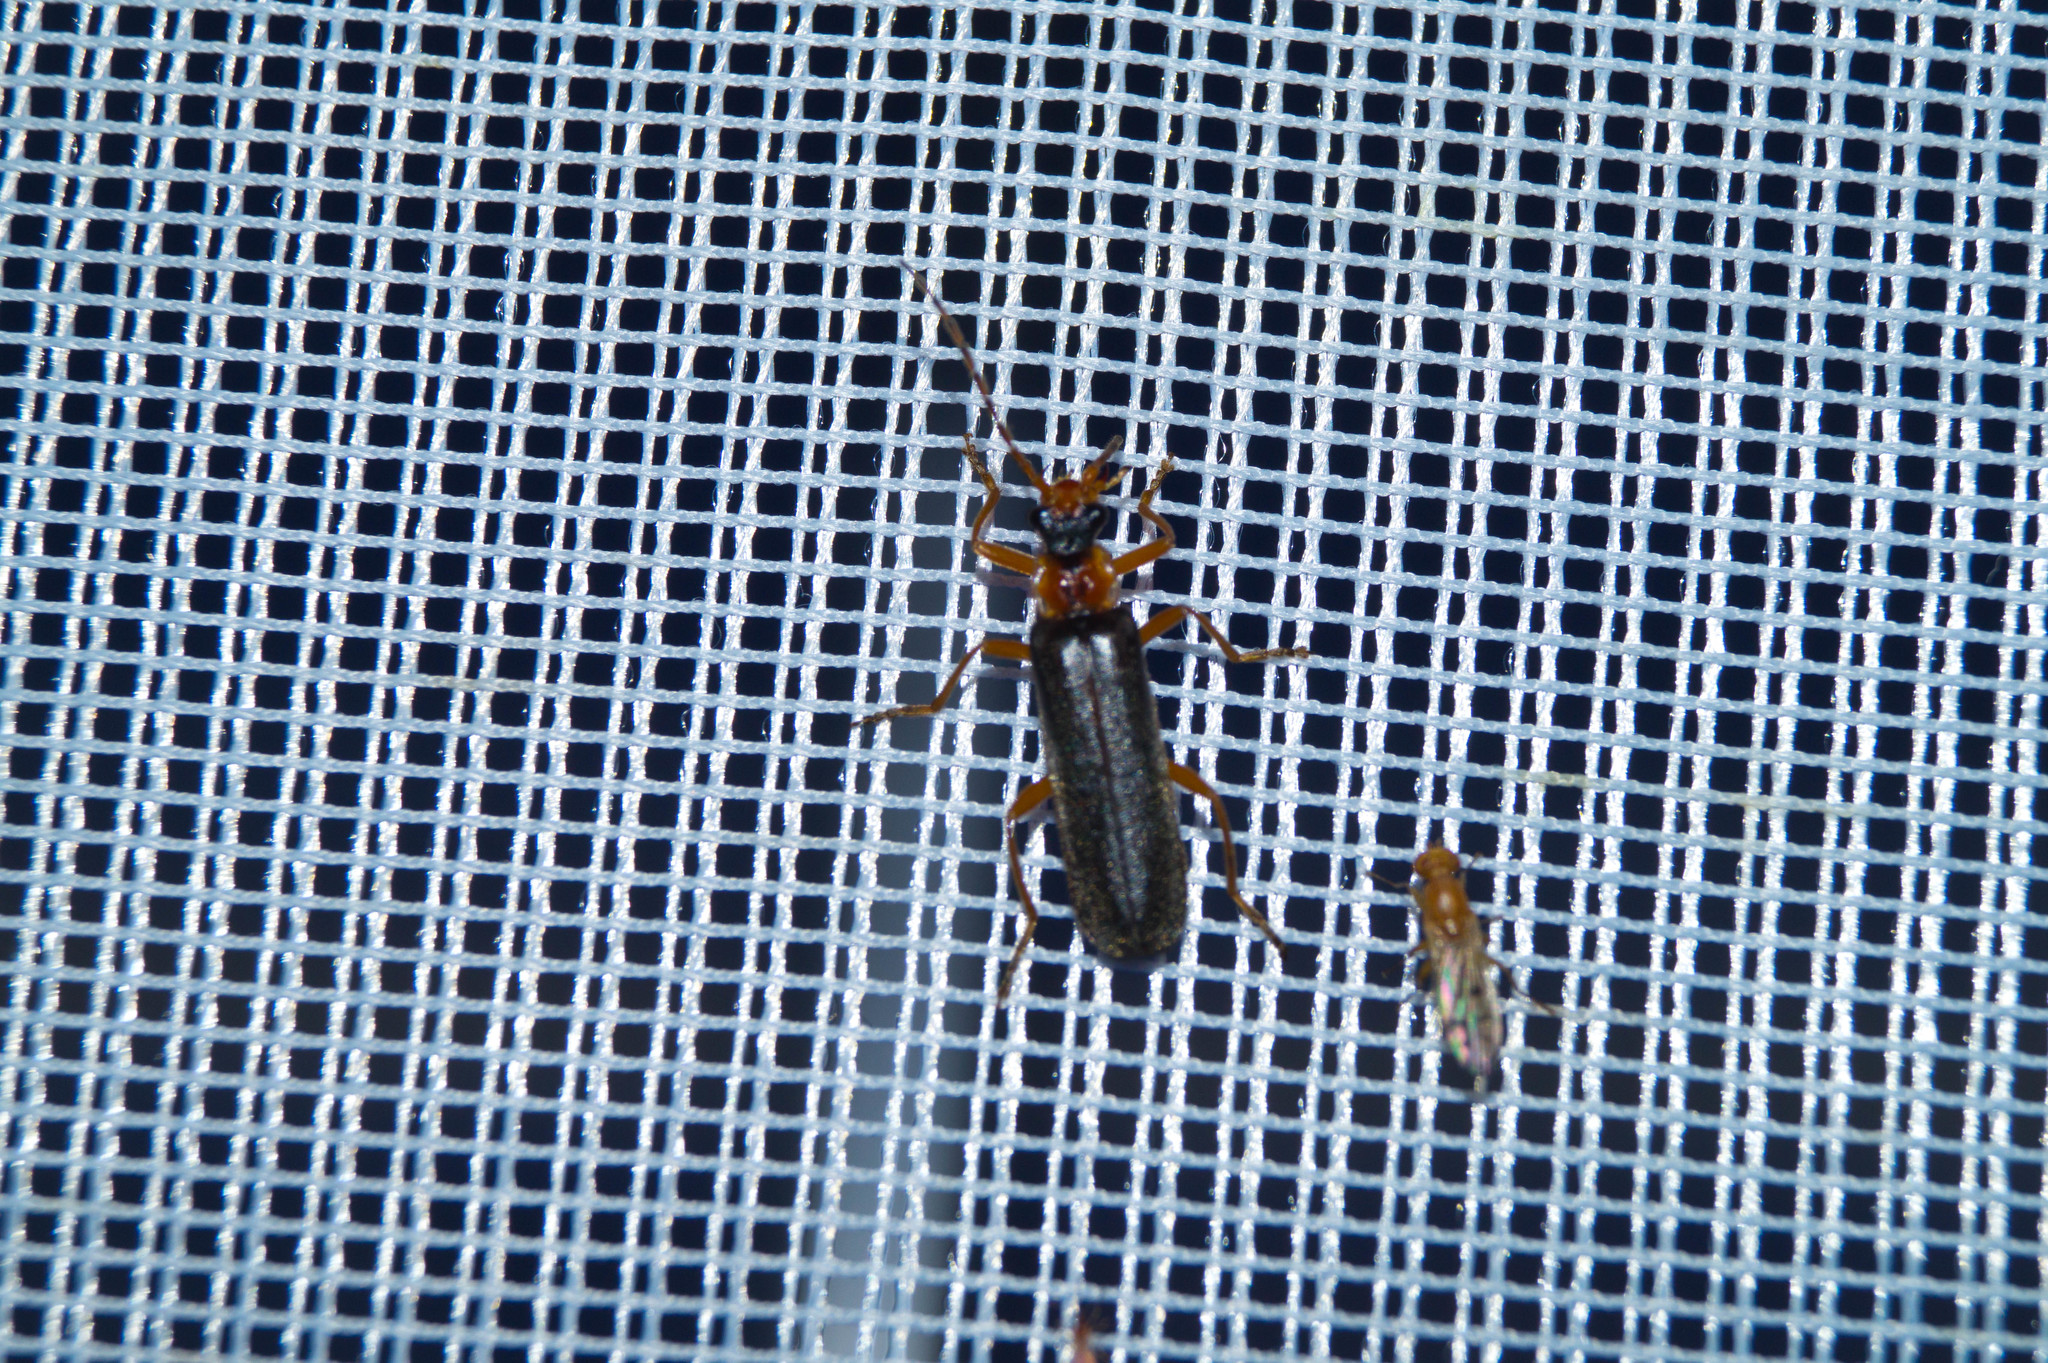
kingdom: Animalia
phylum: Arthropoda
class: Insecta
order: Coleoptera
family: Cantharidae
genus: Podabrus
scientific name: Podabrus alpinus
